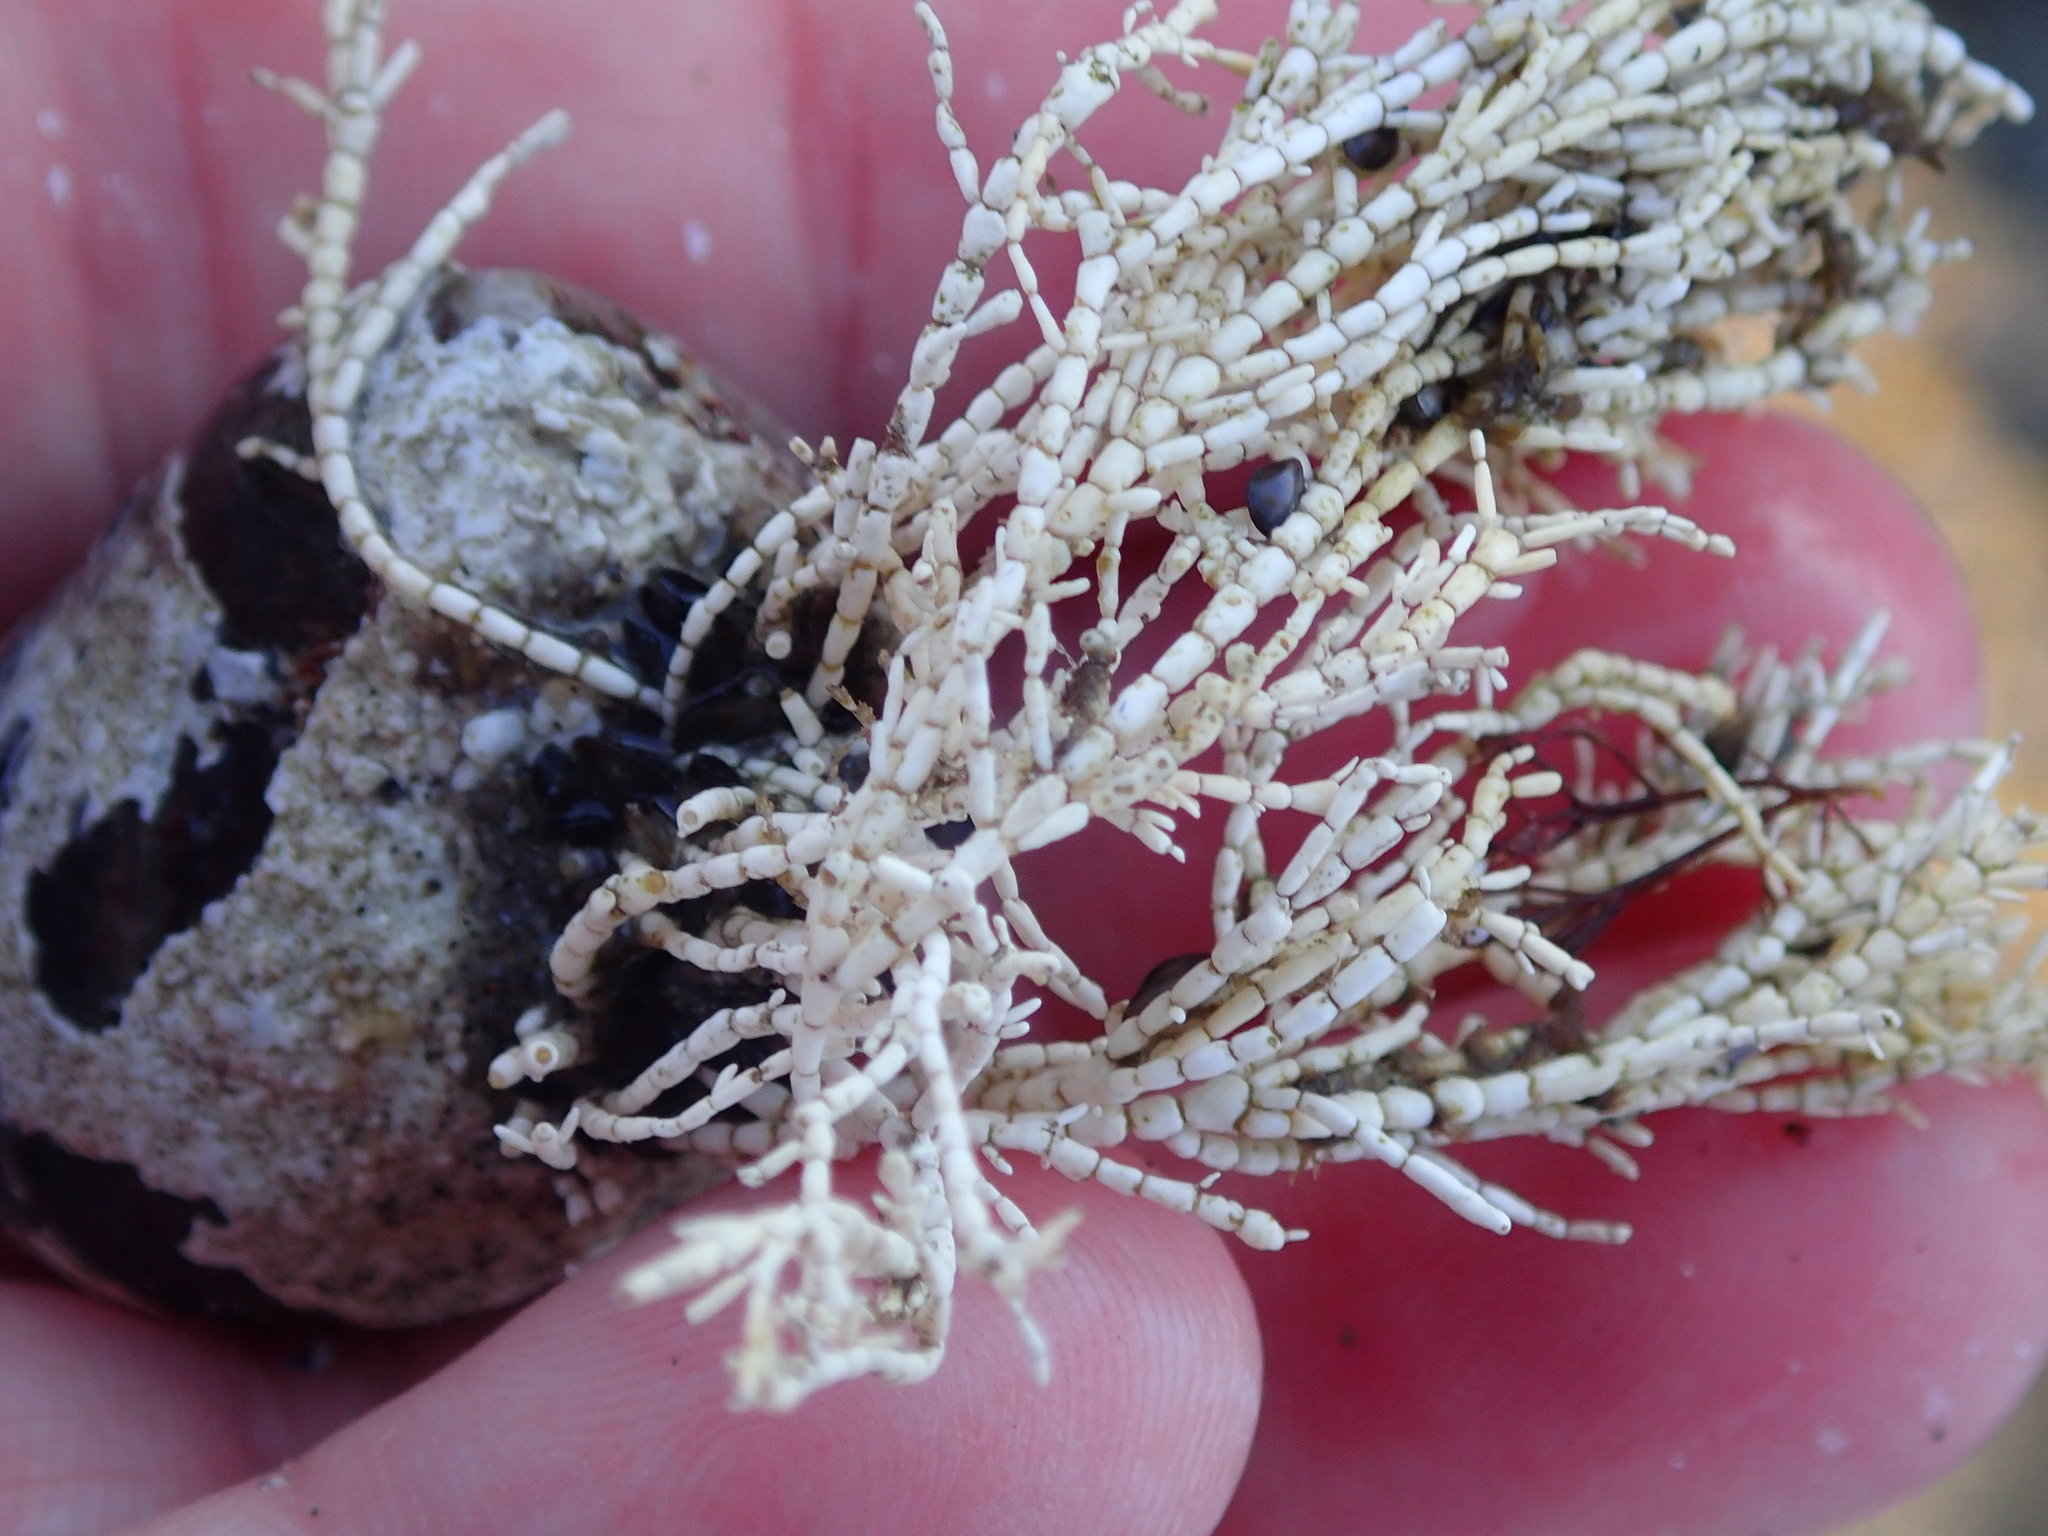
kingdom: Plantae
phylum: Rhodophyta
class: Florideophyceae
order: Corallinales
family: Corallinaceae
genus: Corallina
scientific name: Corallina officinalis
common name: Coral weed
